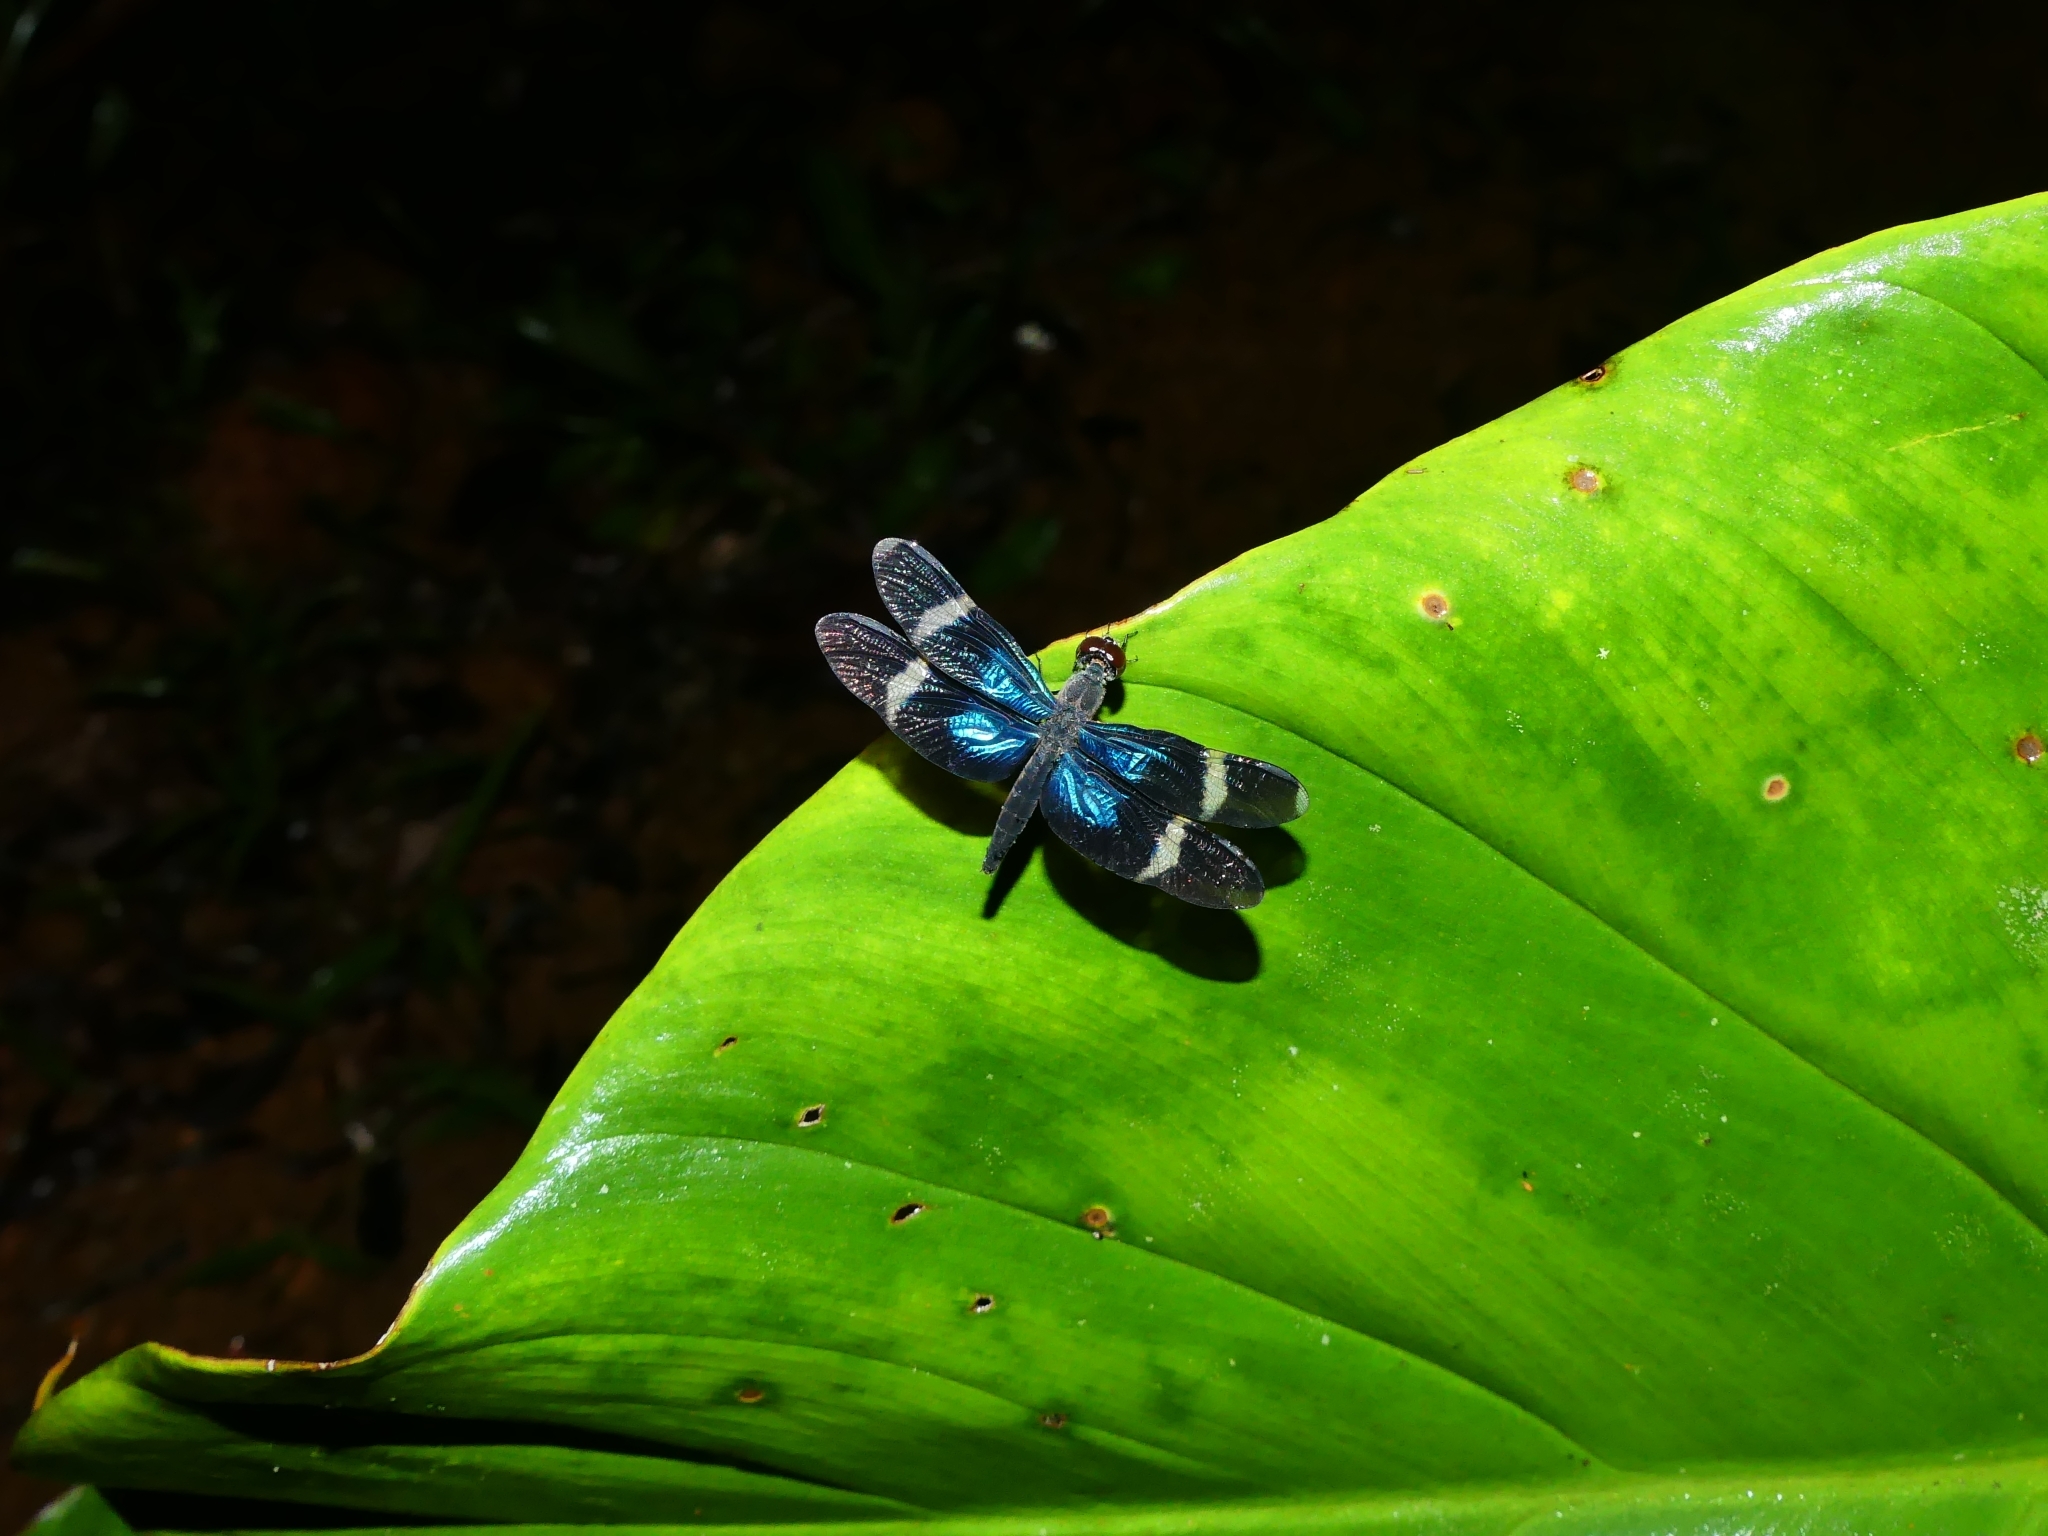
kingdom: Animalia
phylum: Arthropoda
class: Insecta
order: Odonata
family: Libellulidae
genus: Zenithoptera
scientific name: Zenithoptera fasciata
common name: Rainforest bluewing
